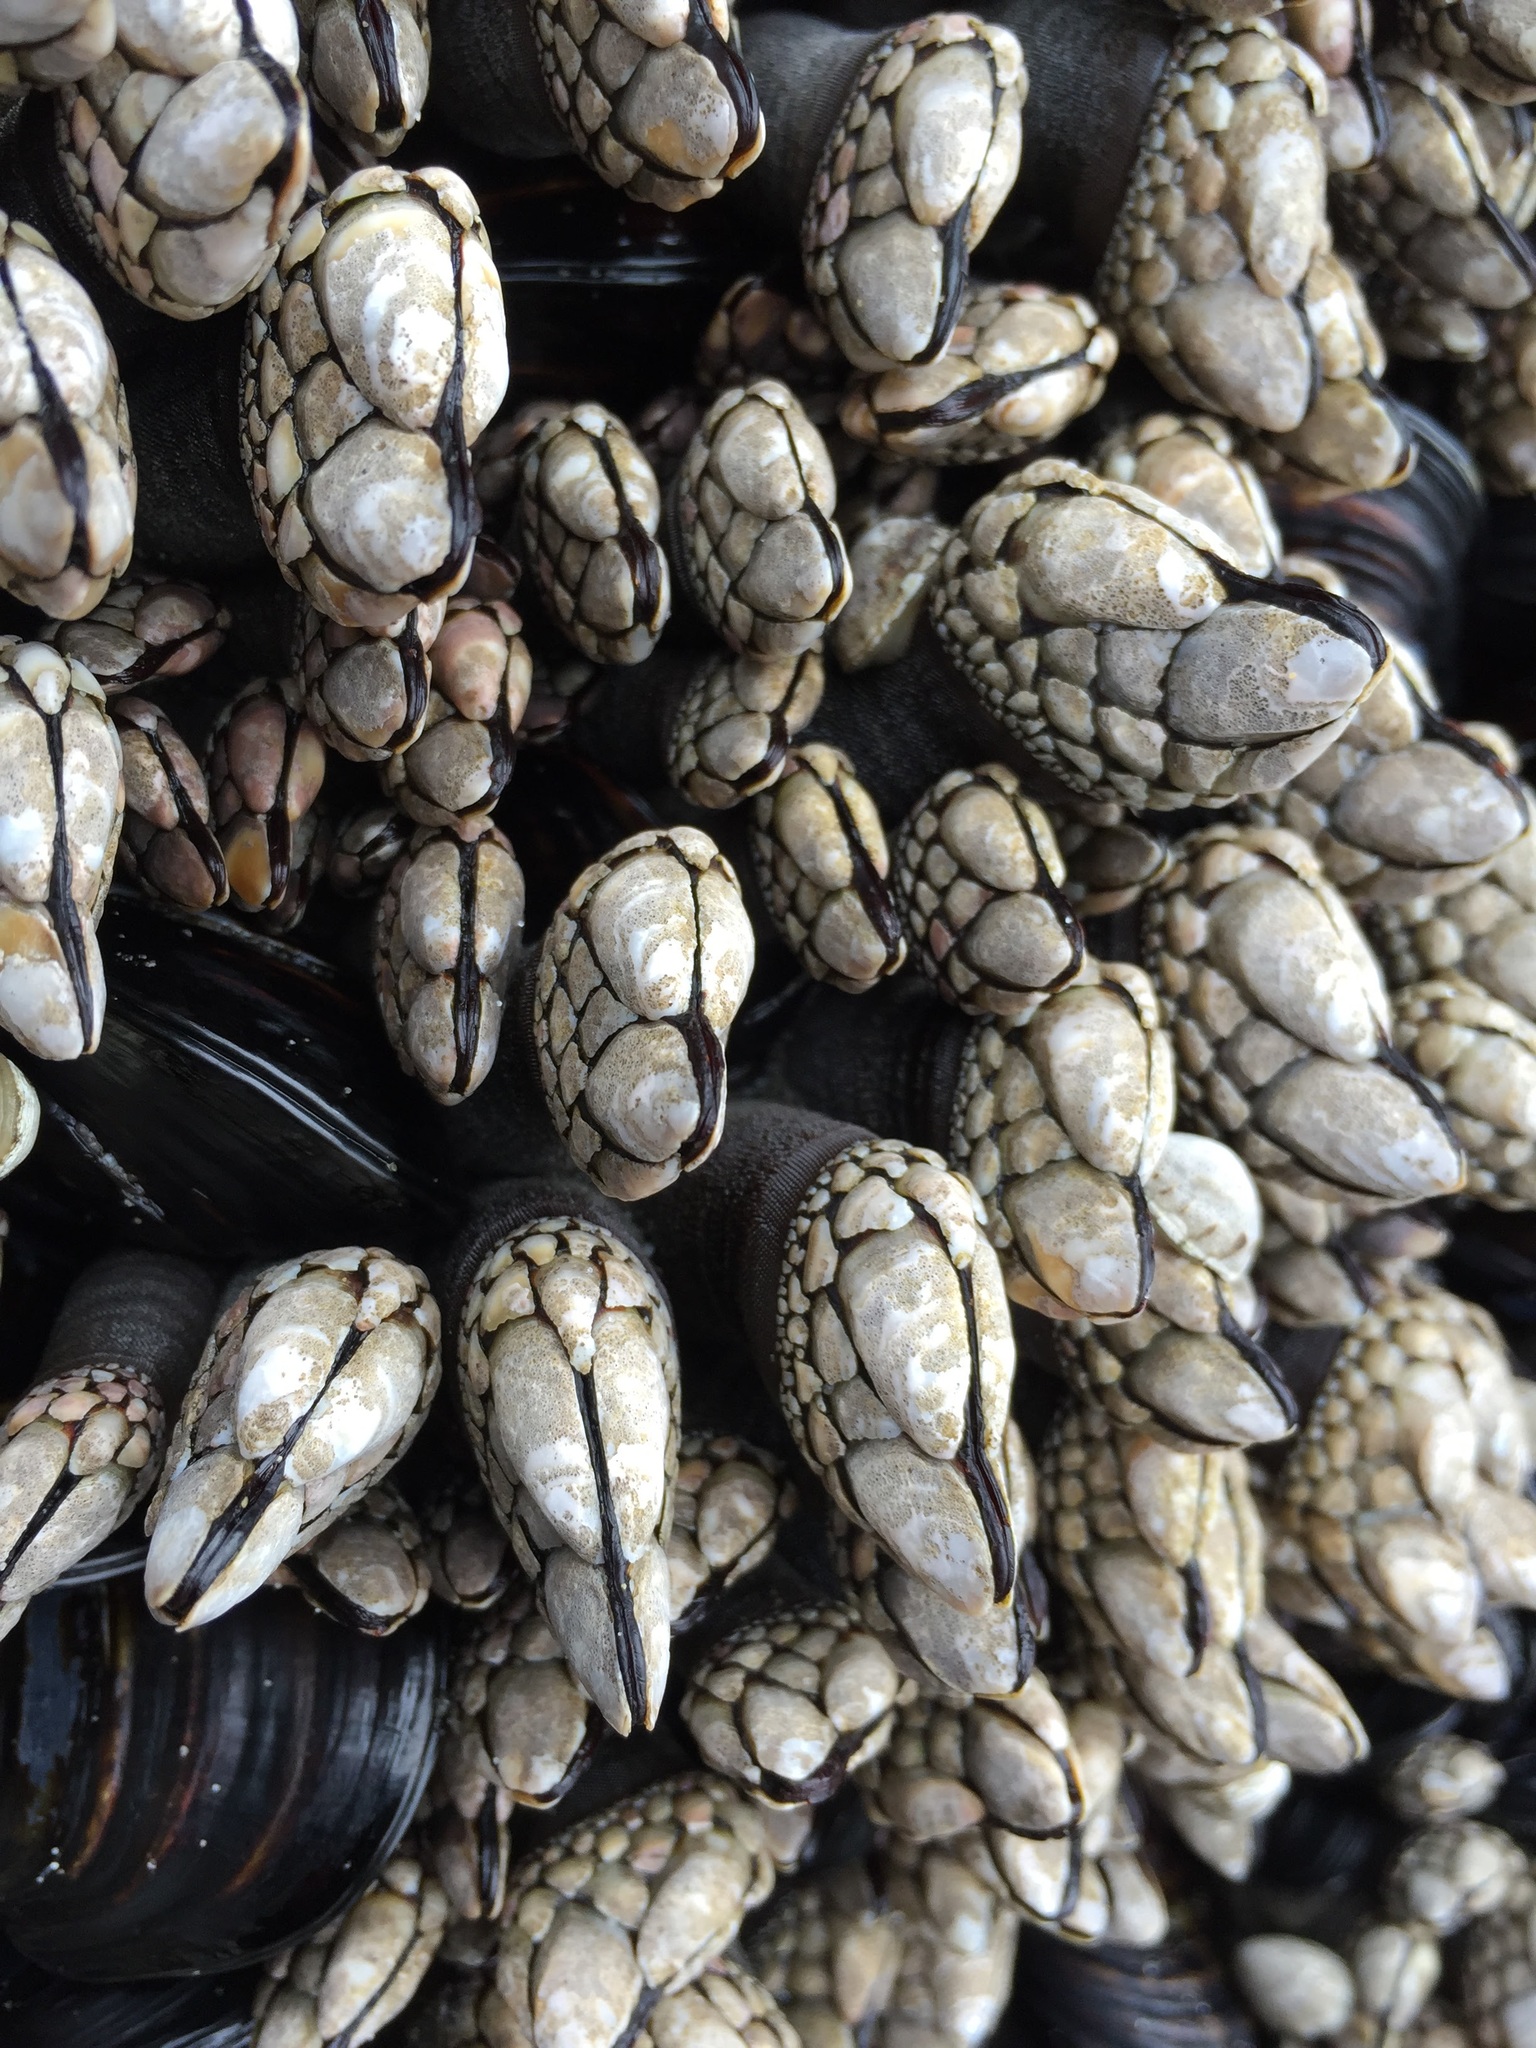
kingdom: Animalia
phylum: Arthropoda
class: Maxillopoda
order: Pedunculata
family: Pollicipedidae
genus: Pollicipes
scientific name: Pollicipes polymerus
